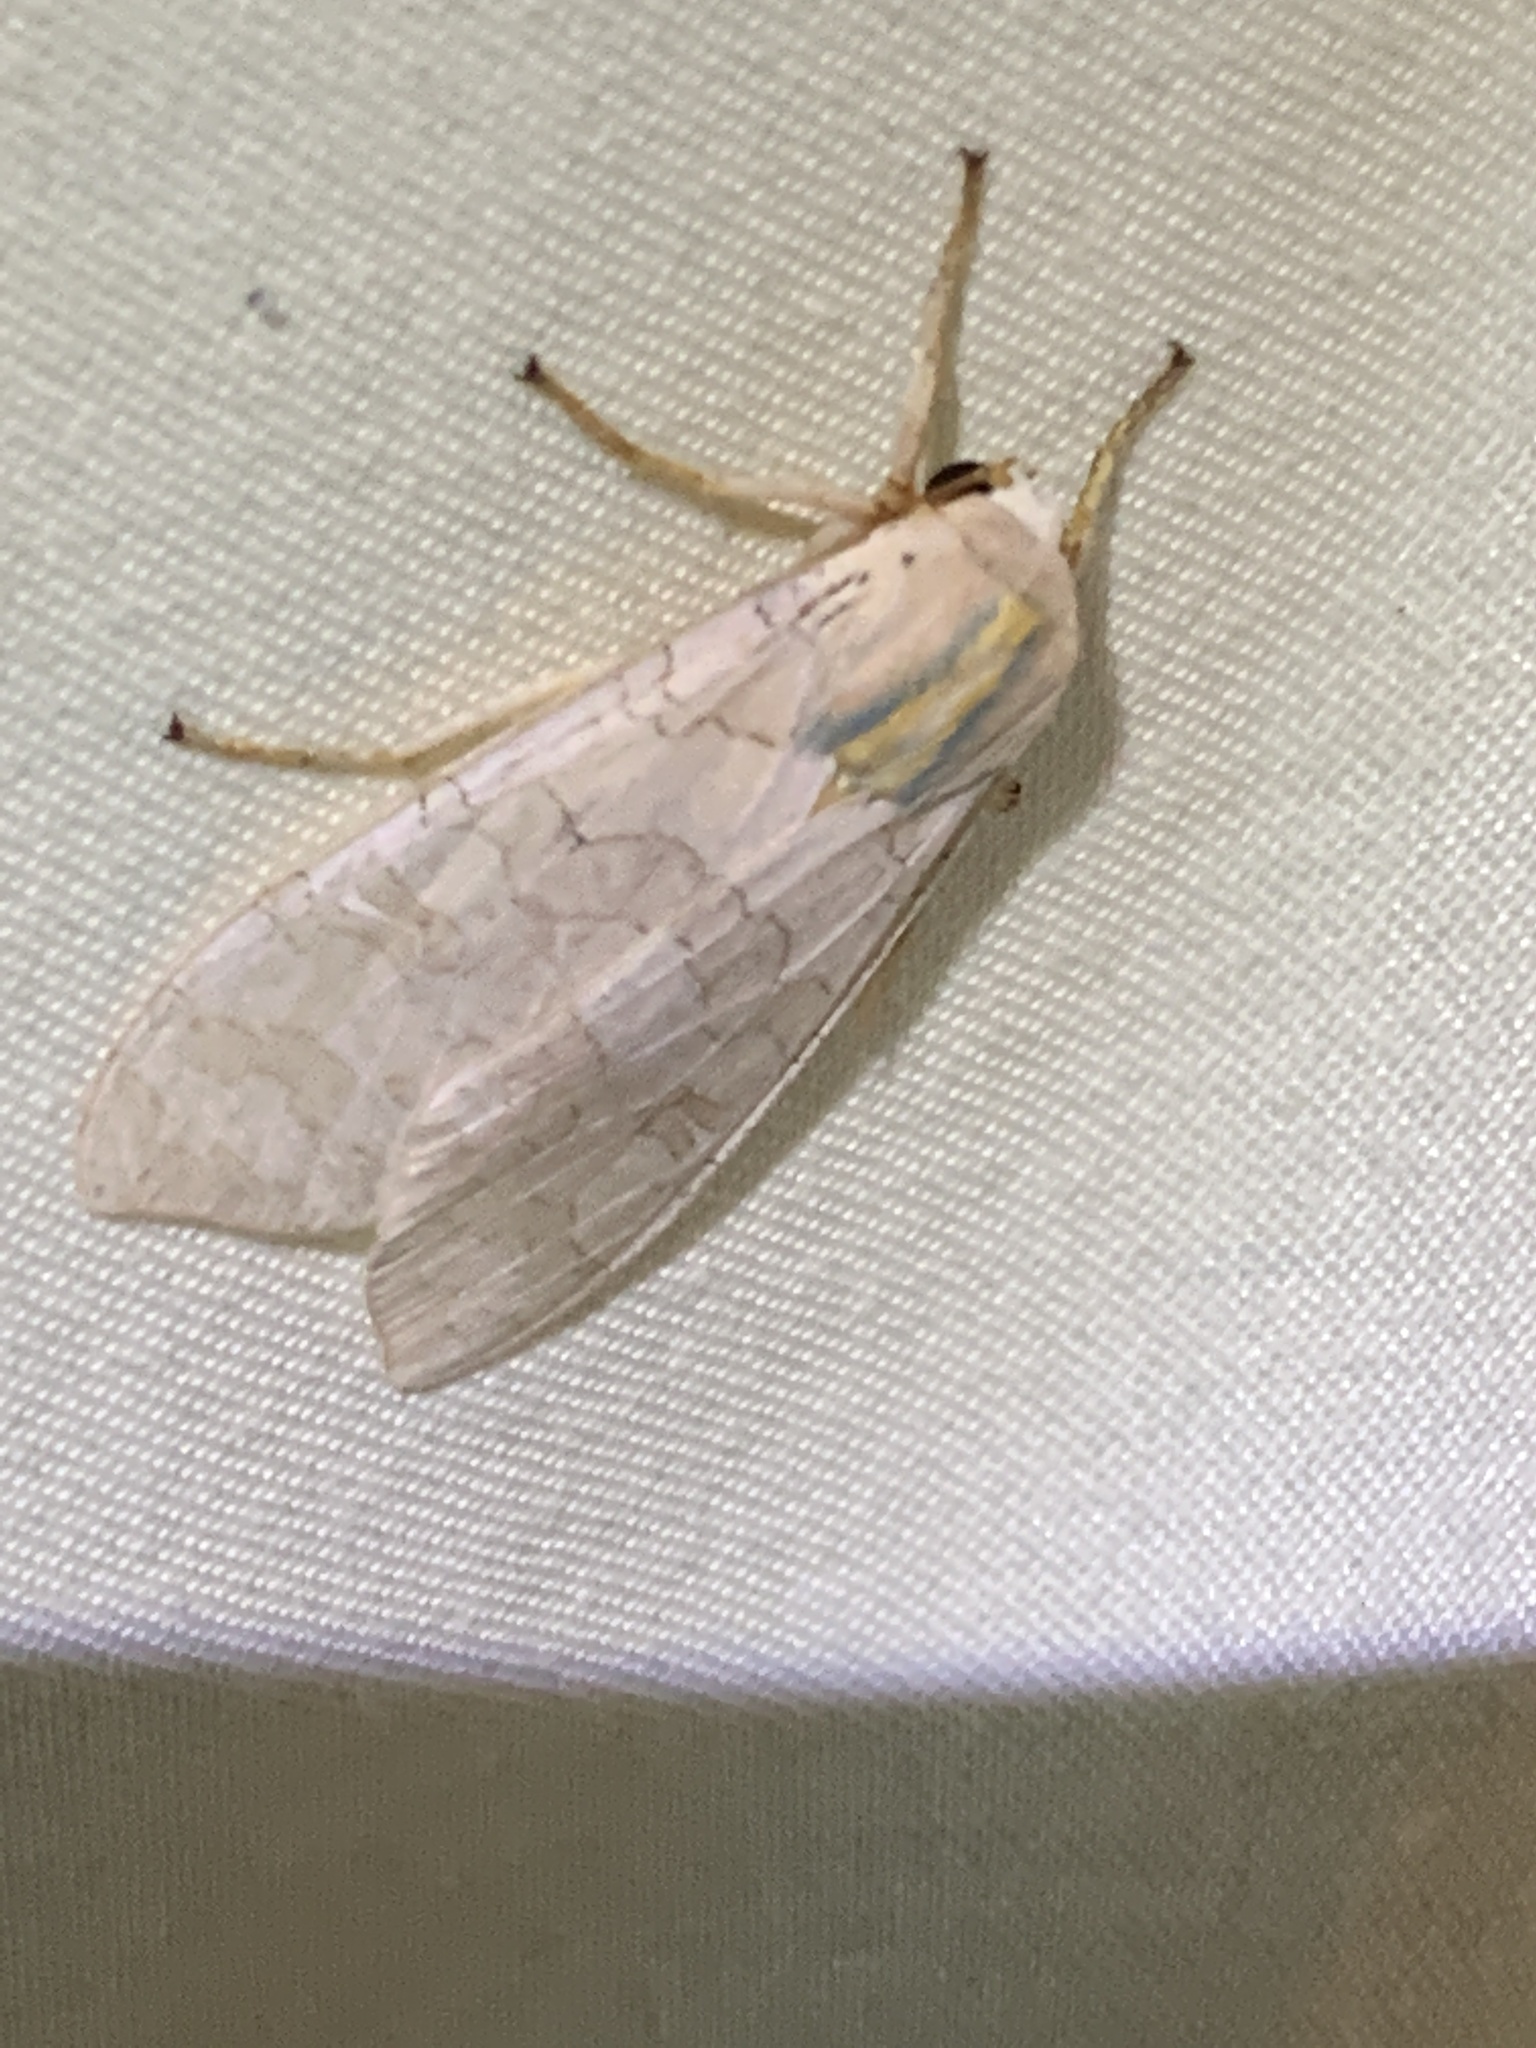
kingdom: Animalia
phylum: Arthropoda
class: Insecta
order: Lepidoptera
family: Erebidae
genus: Halysidota
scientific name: Halysidota
